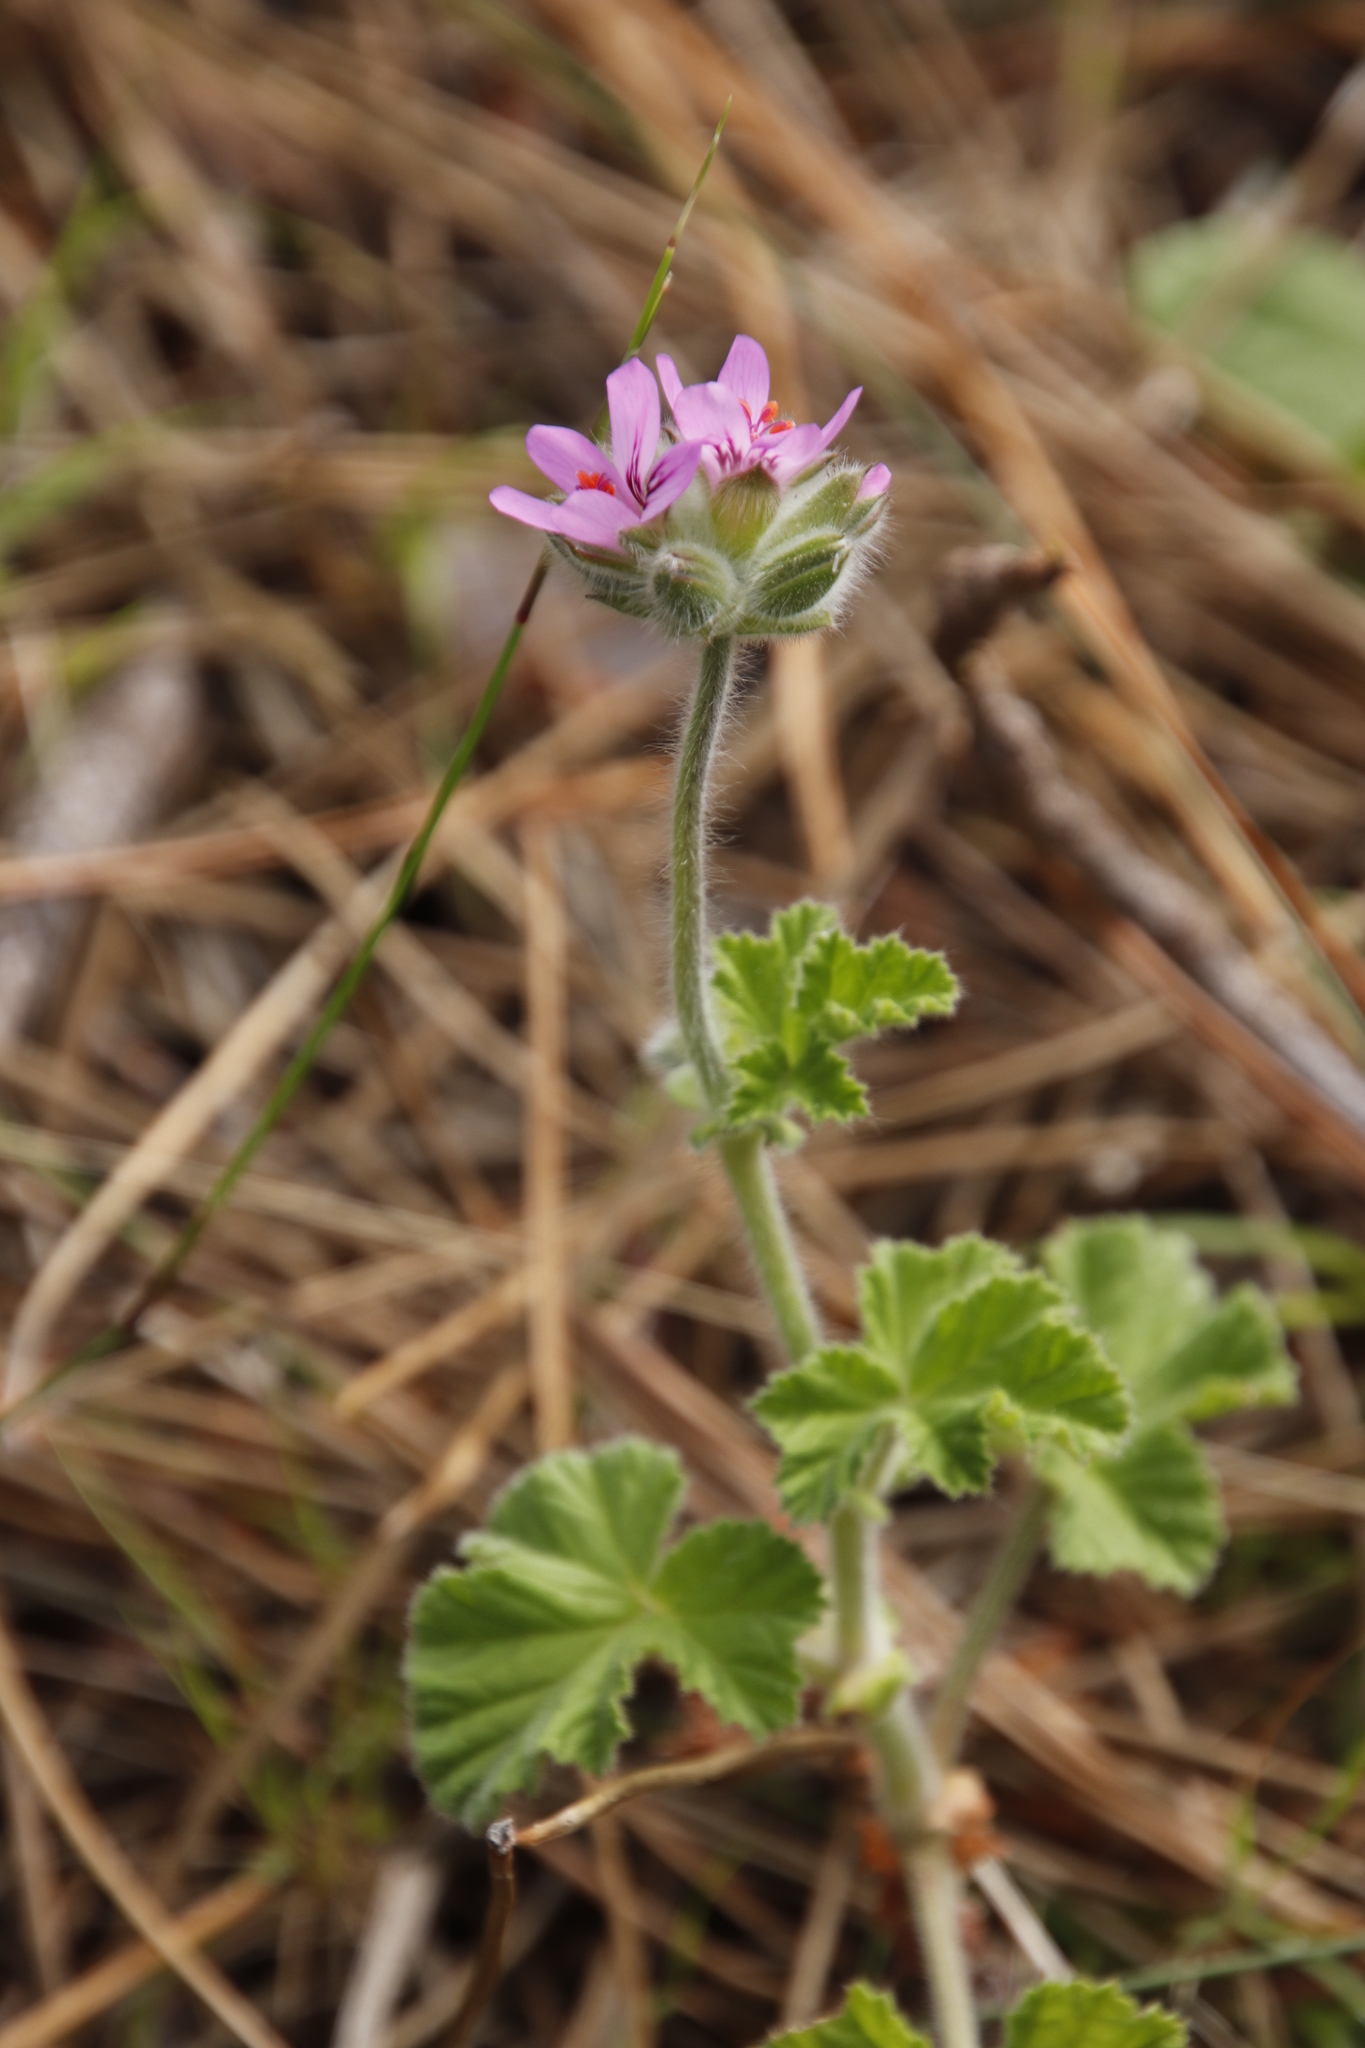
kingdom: Plantae
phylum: Tracheophyta
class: Magnoliopsida
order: Geraniales
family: Geraniaceae
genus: Pelargonium
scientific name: Pelargonium capitatum
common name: Rose scented geranium
